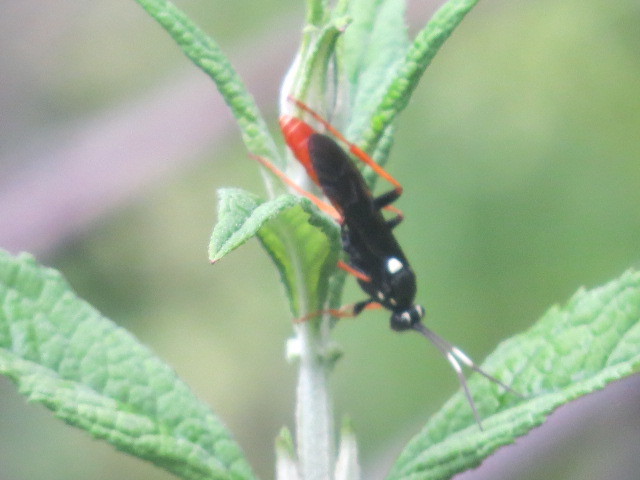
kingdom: Animalia
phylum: Arthropoda
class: Insecta
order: Hymenoptera
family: Ichneumonidae
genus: Amblyjoppa
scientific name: Amblyjoppa fuscipennis
